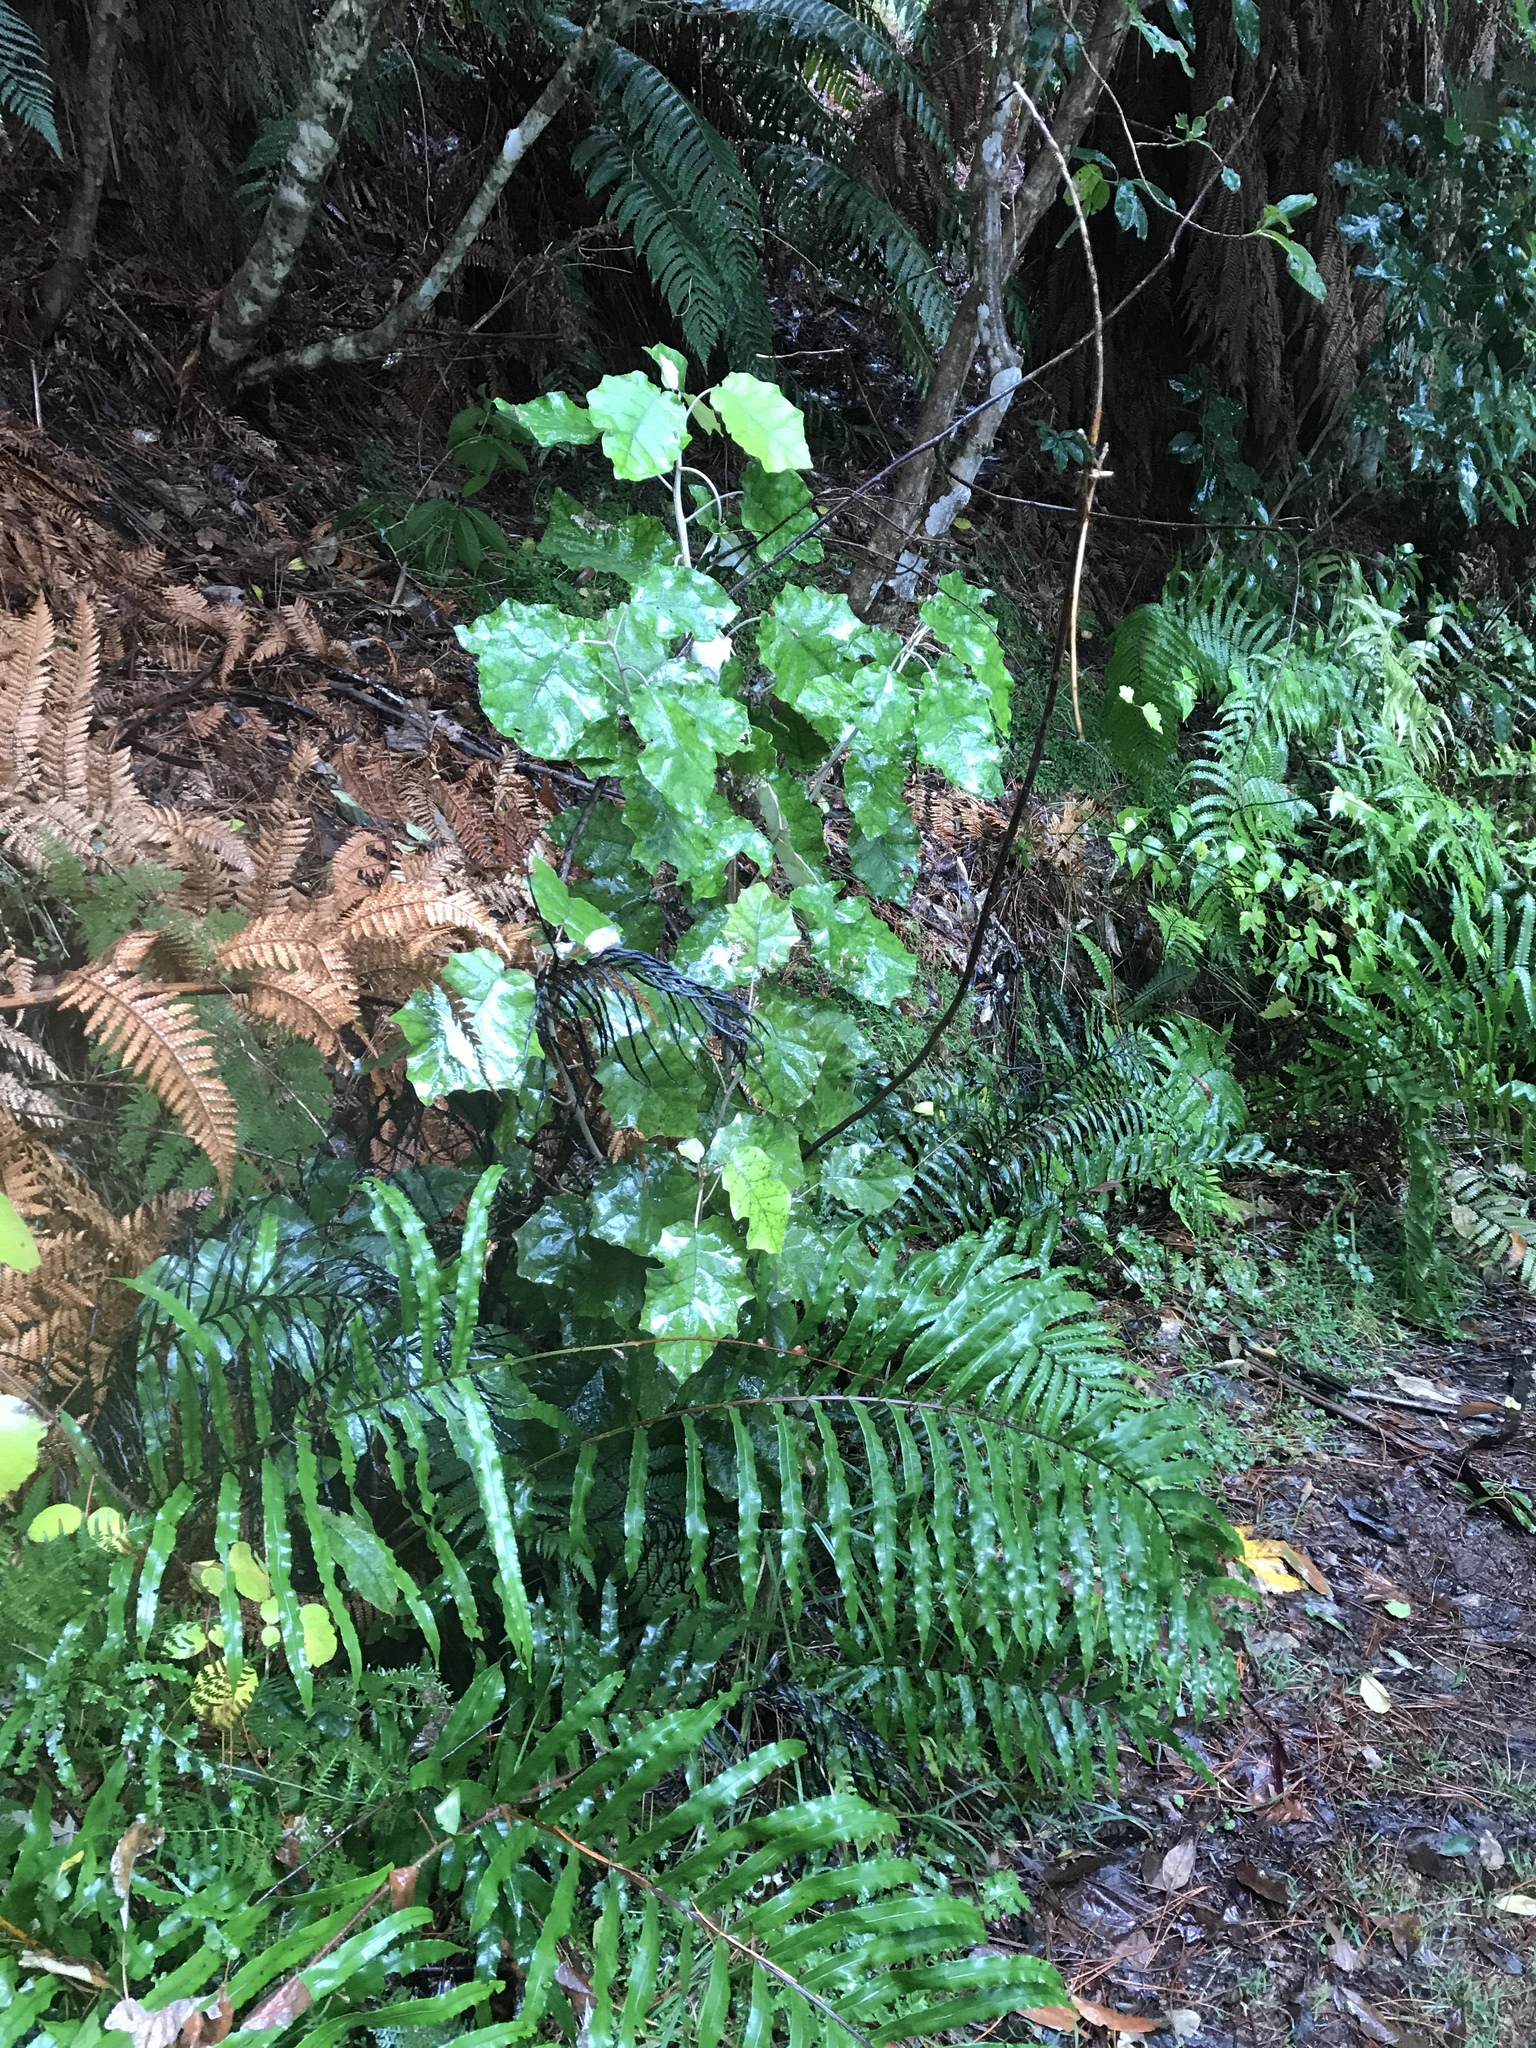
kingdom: Plantae
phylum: Tracheophyta
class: Magnoliopsida
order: Asterales
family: Asteraceae
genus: Brachyglottis
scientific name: Brachyglottis repanda
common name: Hedge ragwort
